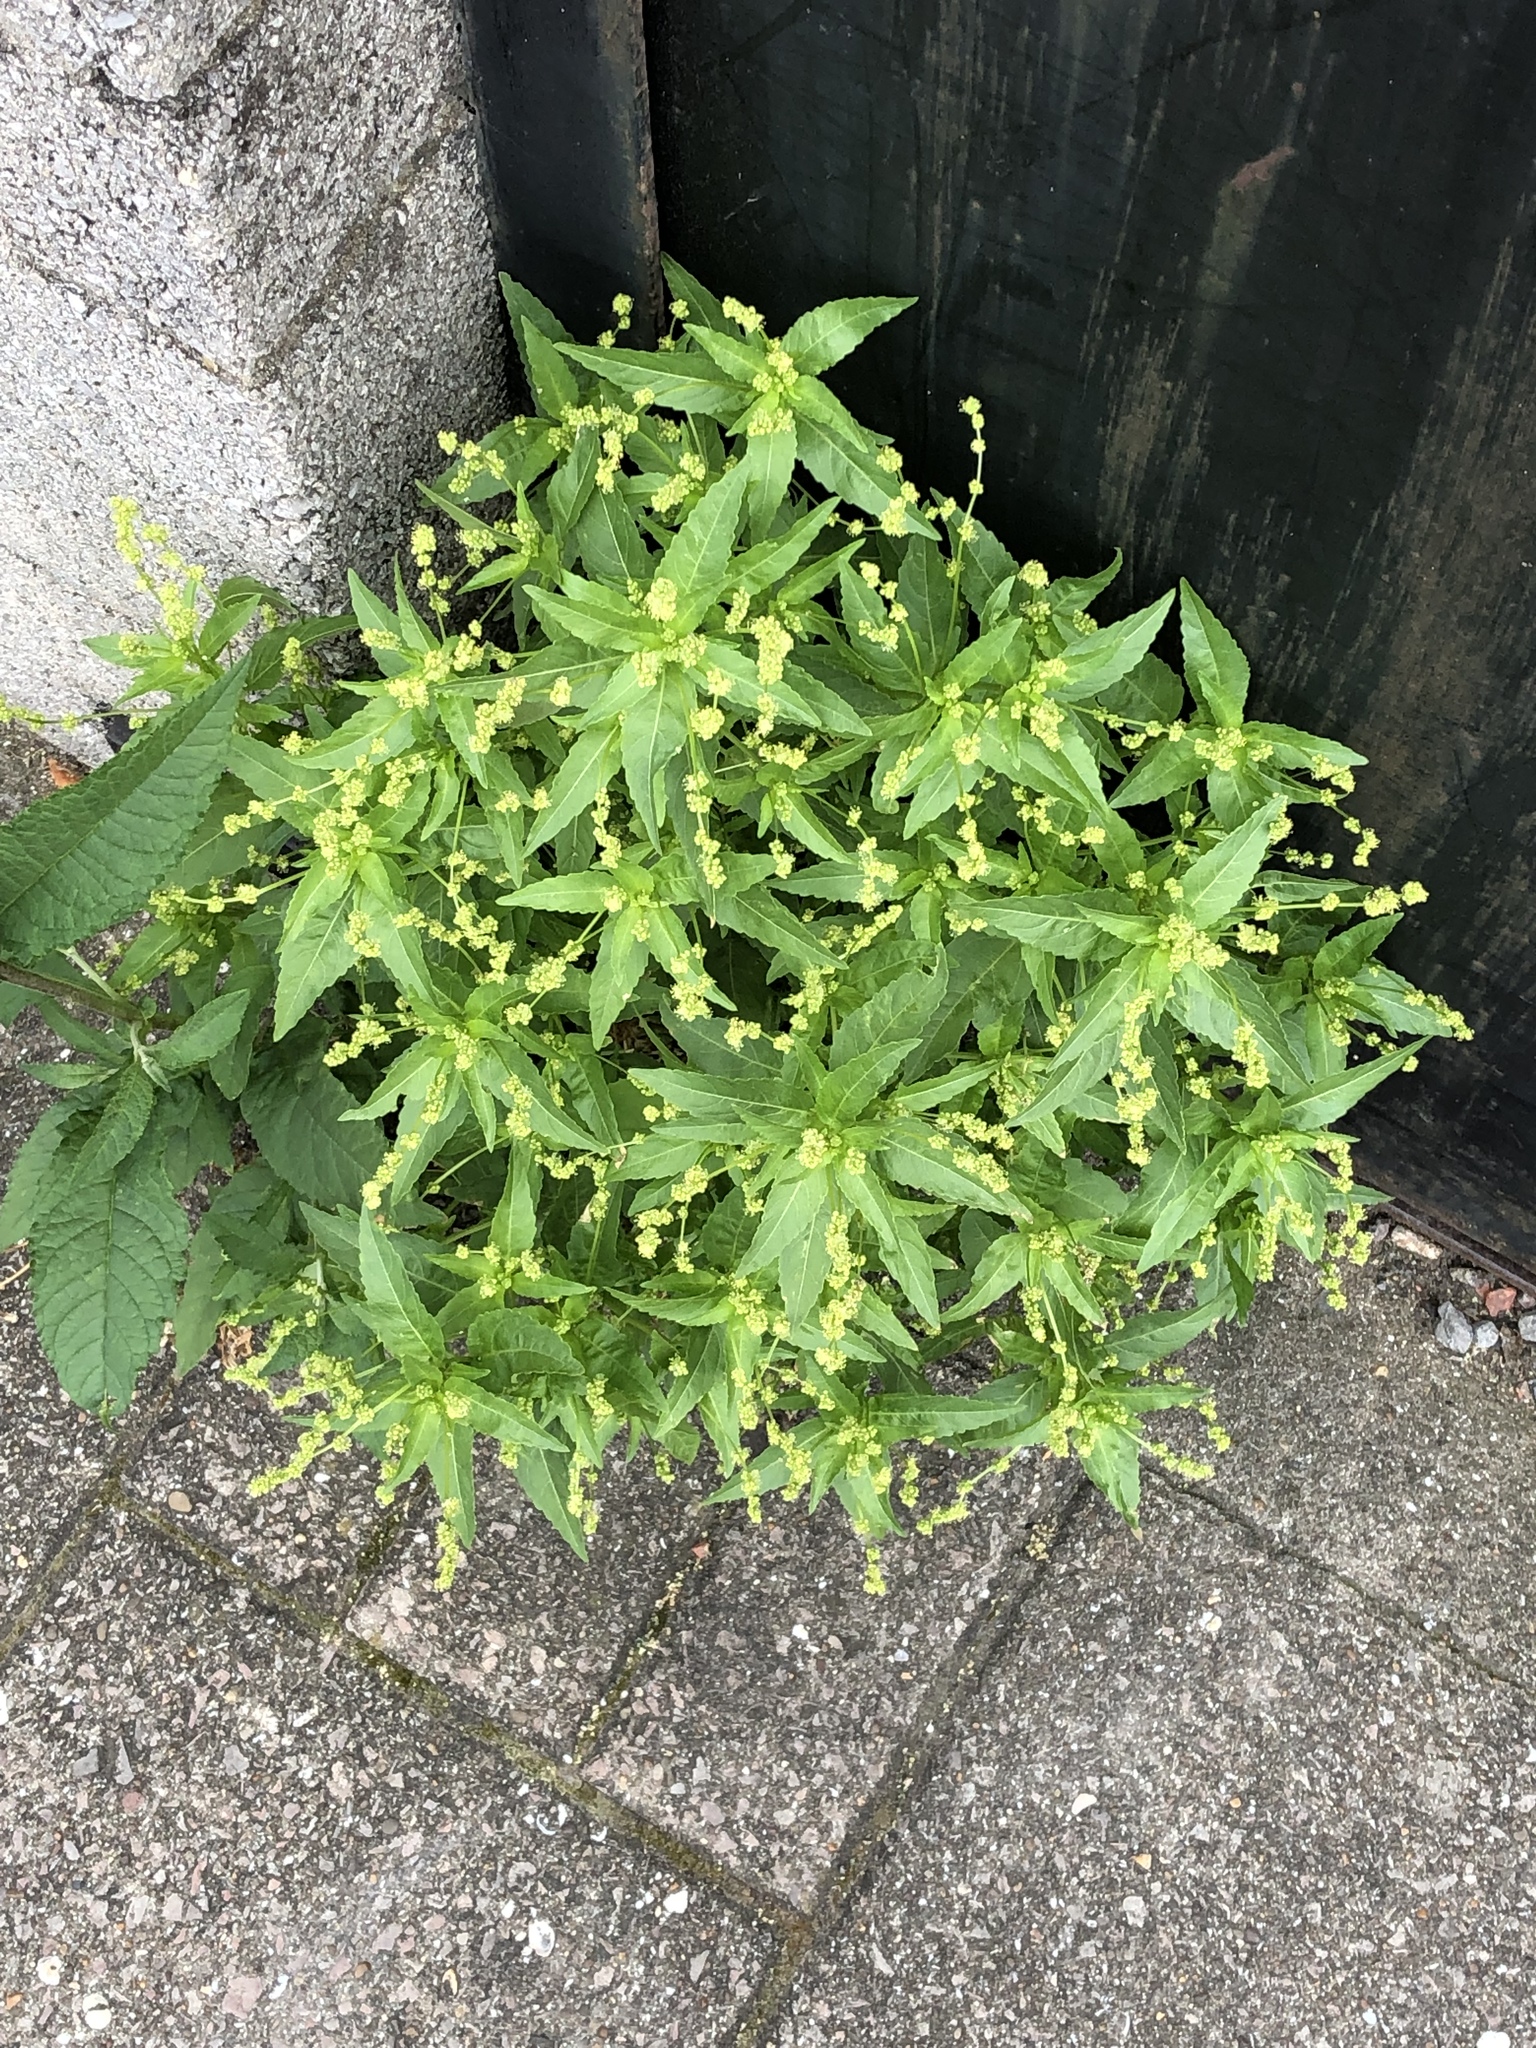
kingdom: Plantae
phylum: Tracheophyta
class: Magnoliopsida
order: Malpighiales
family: Euphorbiaceae
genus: Mercurialis
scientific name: Mercurialis annua
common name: Annual mercury
